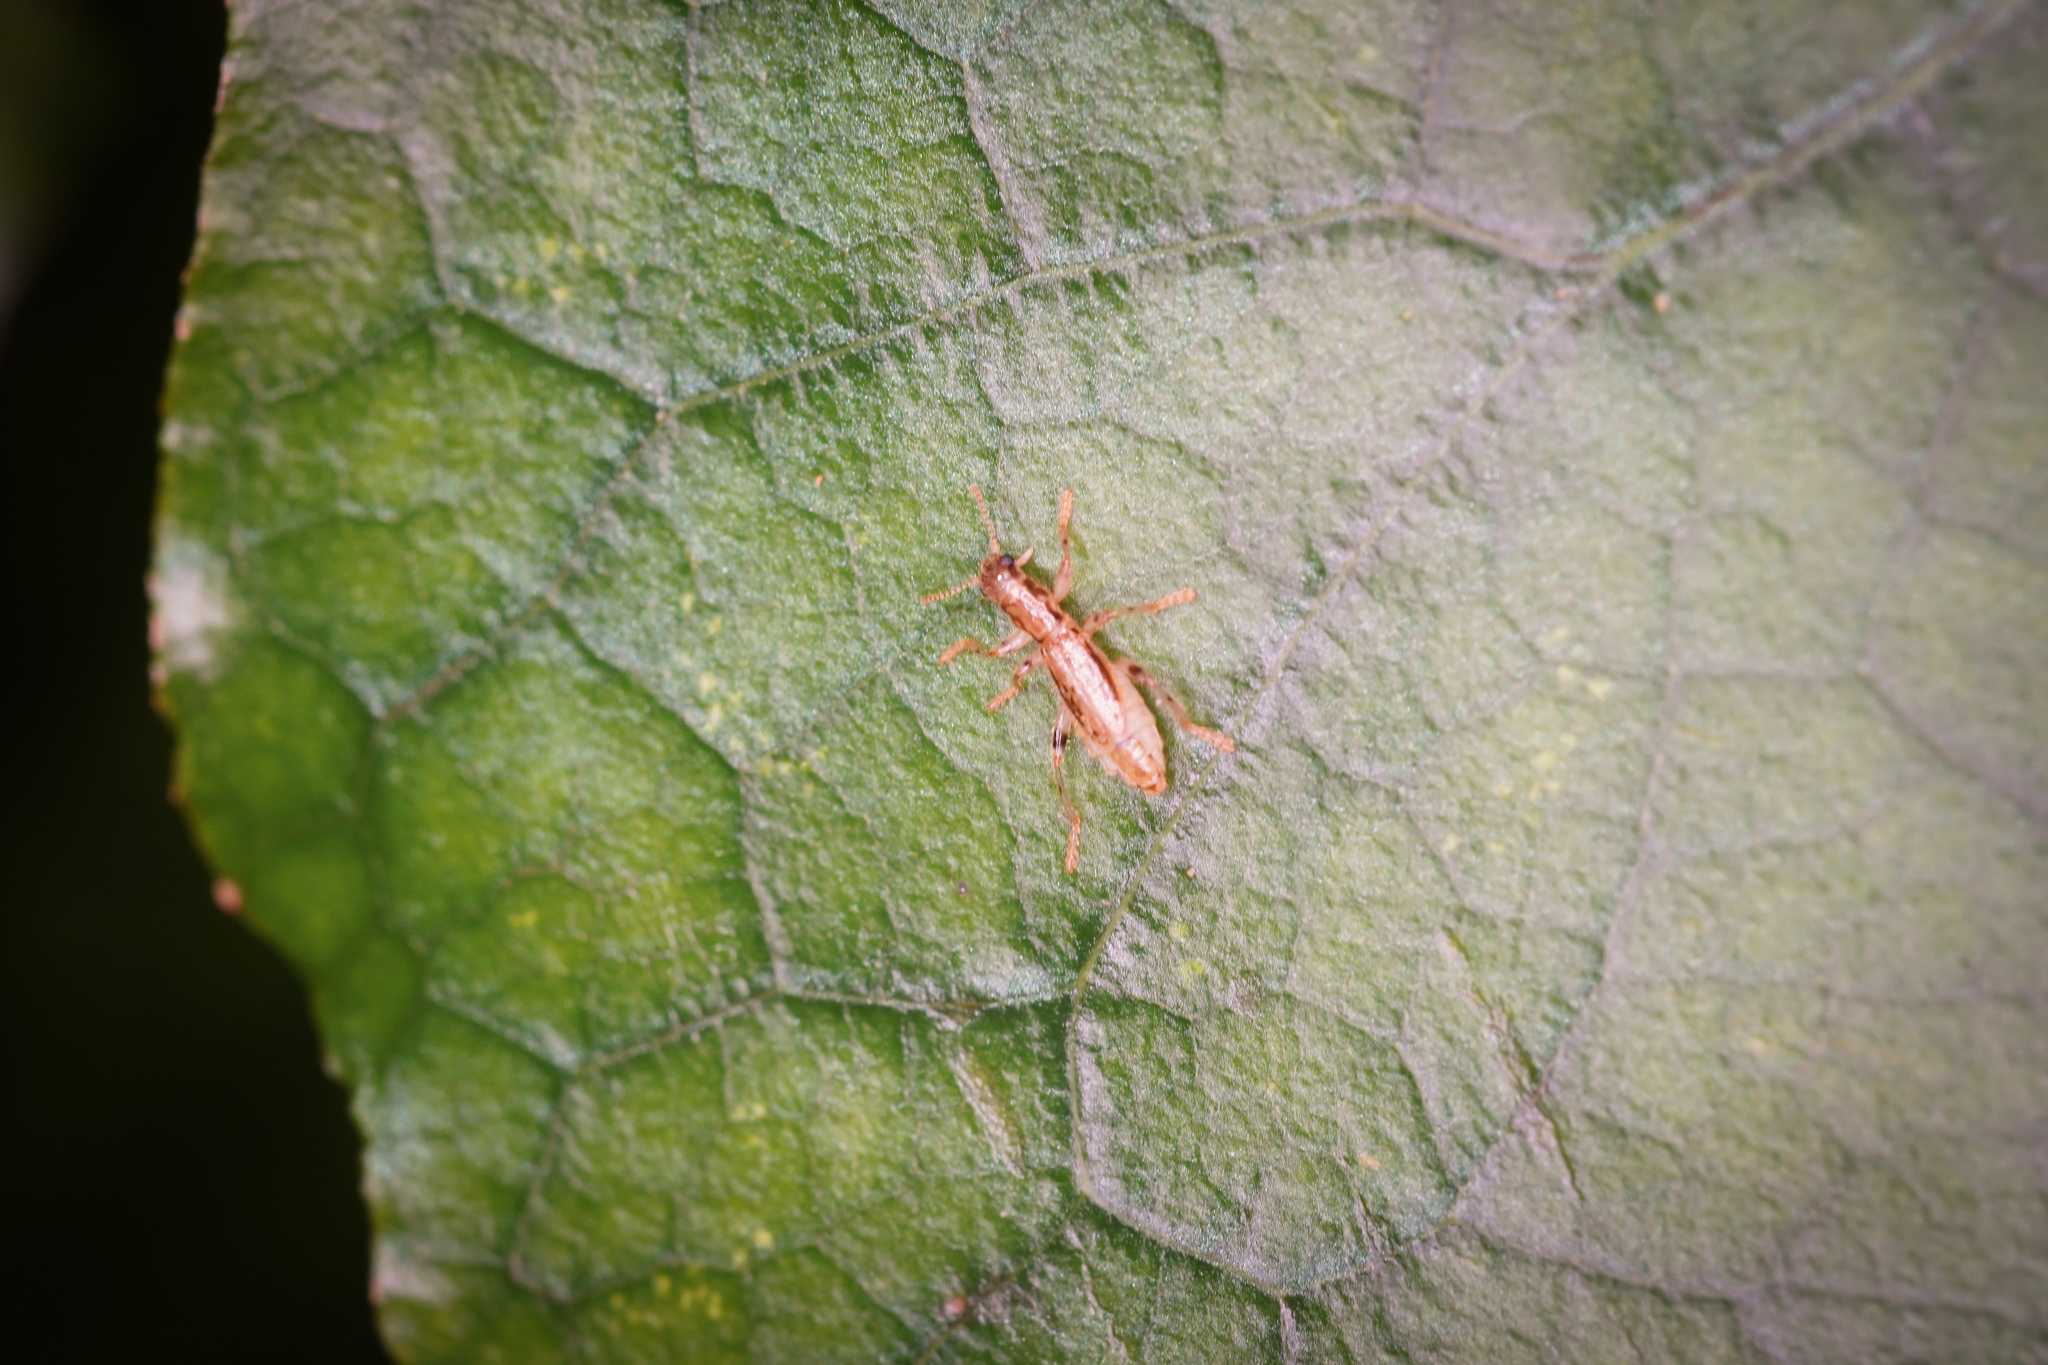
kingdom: Animalia
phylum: Arthropoda
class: Insecta
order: Coleoptera
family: Cleridae
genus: Lemidia
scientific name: Lemidia
